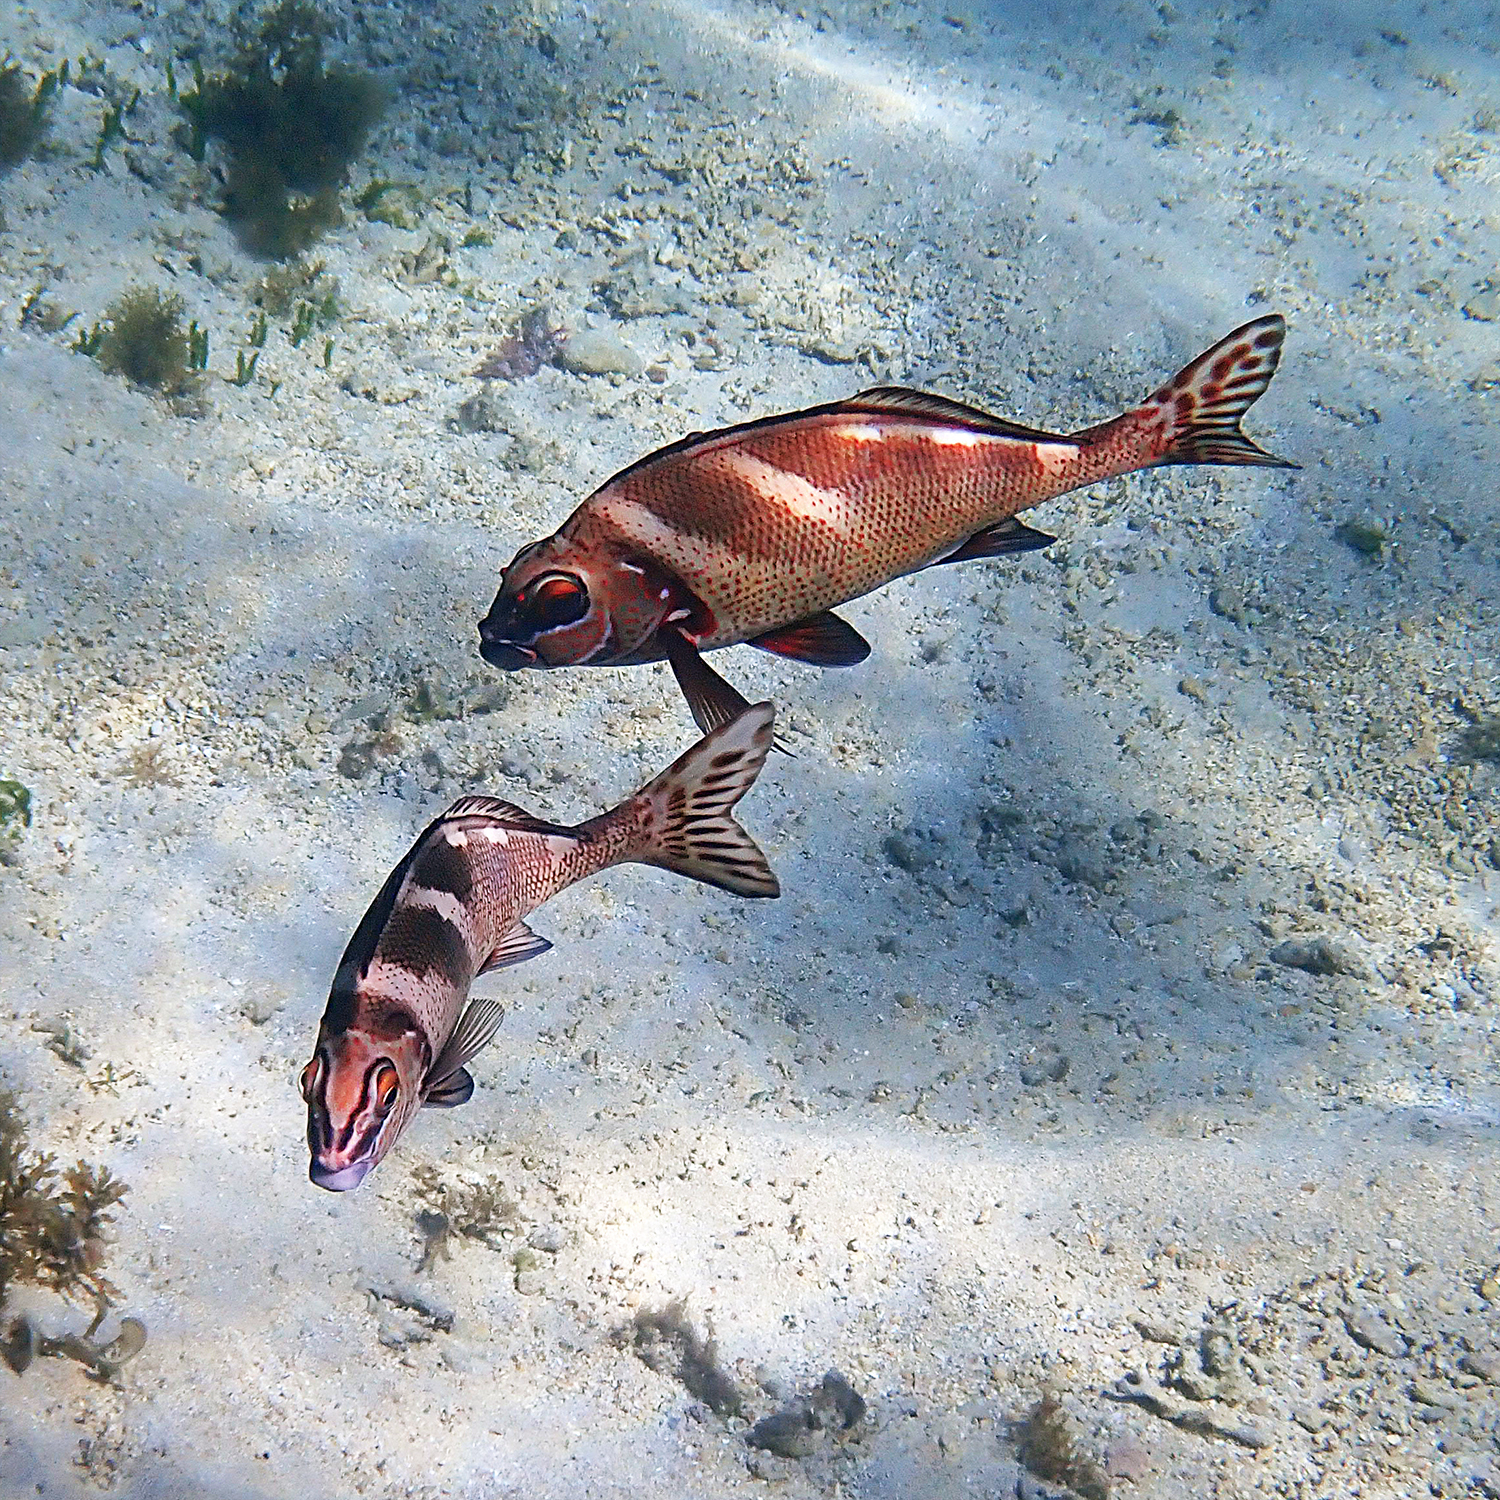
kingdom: Animalia
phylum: Chordata
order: Perciformes
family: Latridae
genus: Morwong
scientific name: Morwong ephippium
